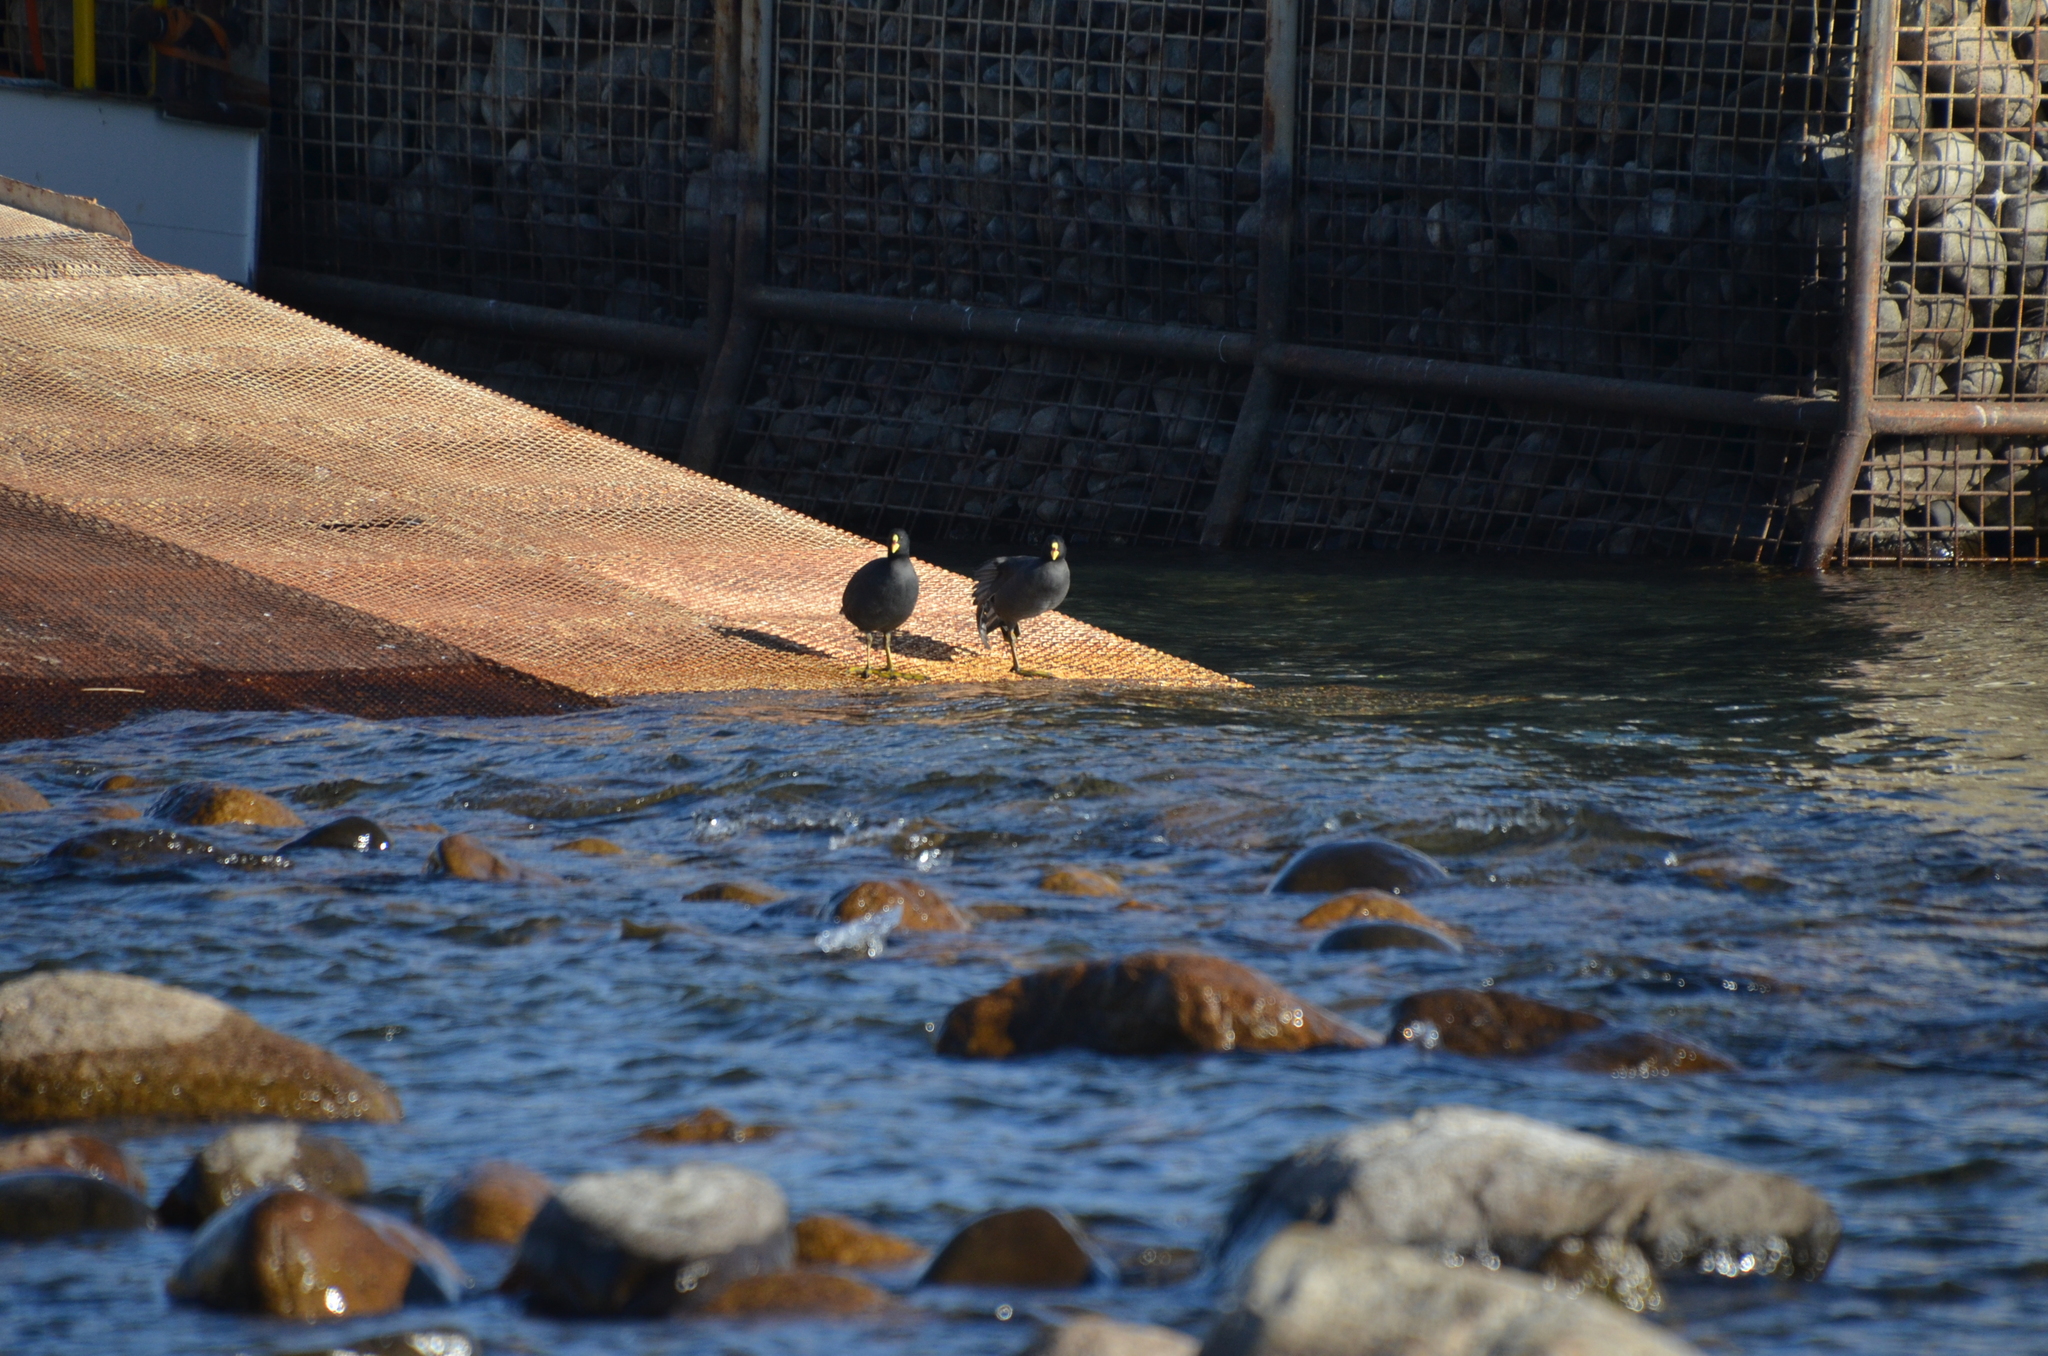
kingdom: Animalia
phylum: Chordata
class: Aves
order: Gruiformes
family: Rallidae
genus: Fulica
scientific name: Fulica armillata
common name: Red-gartered coot
